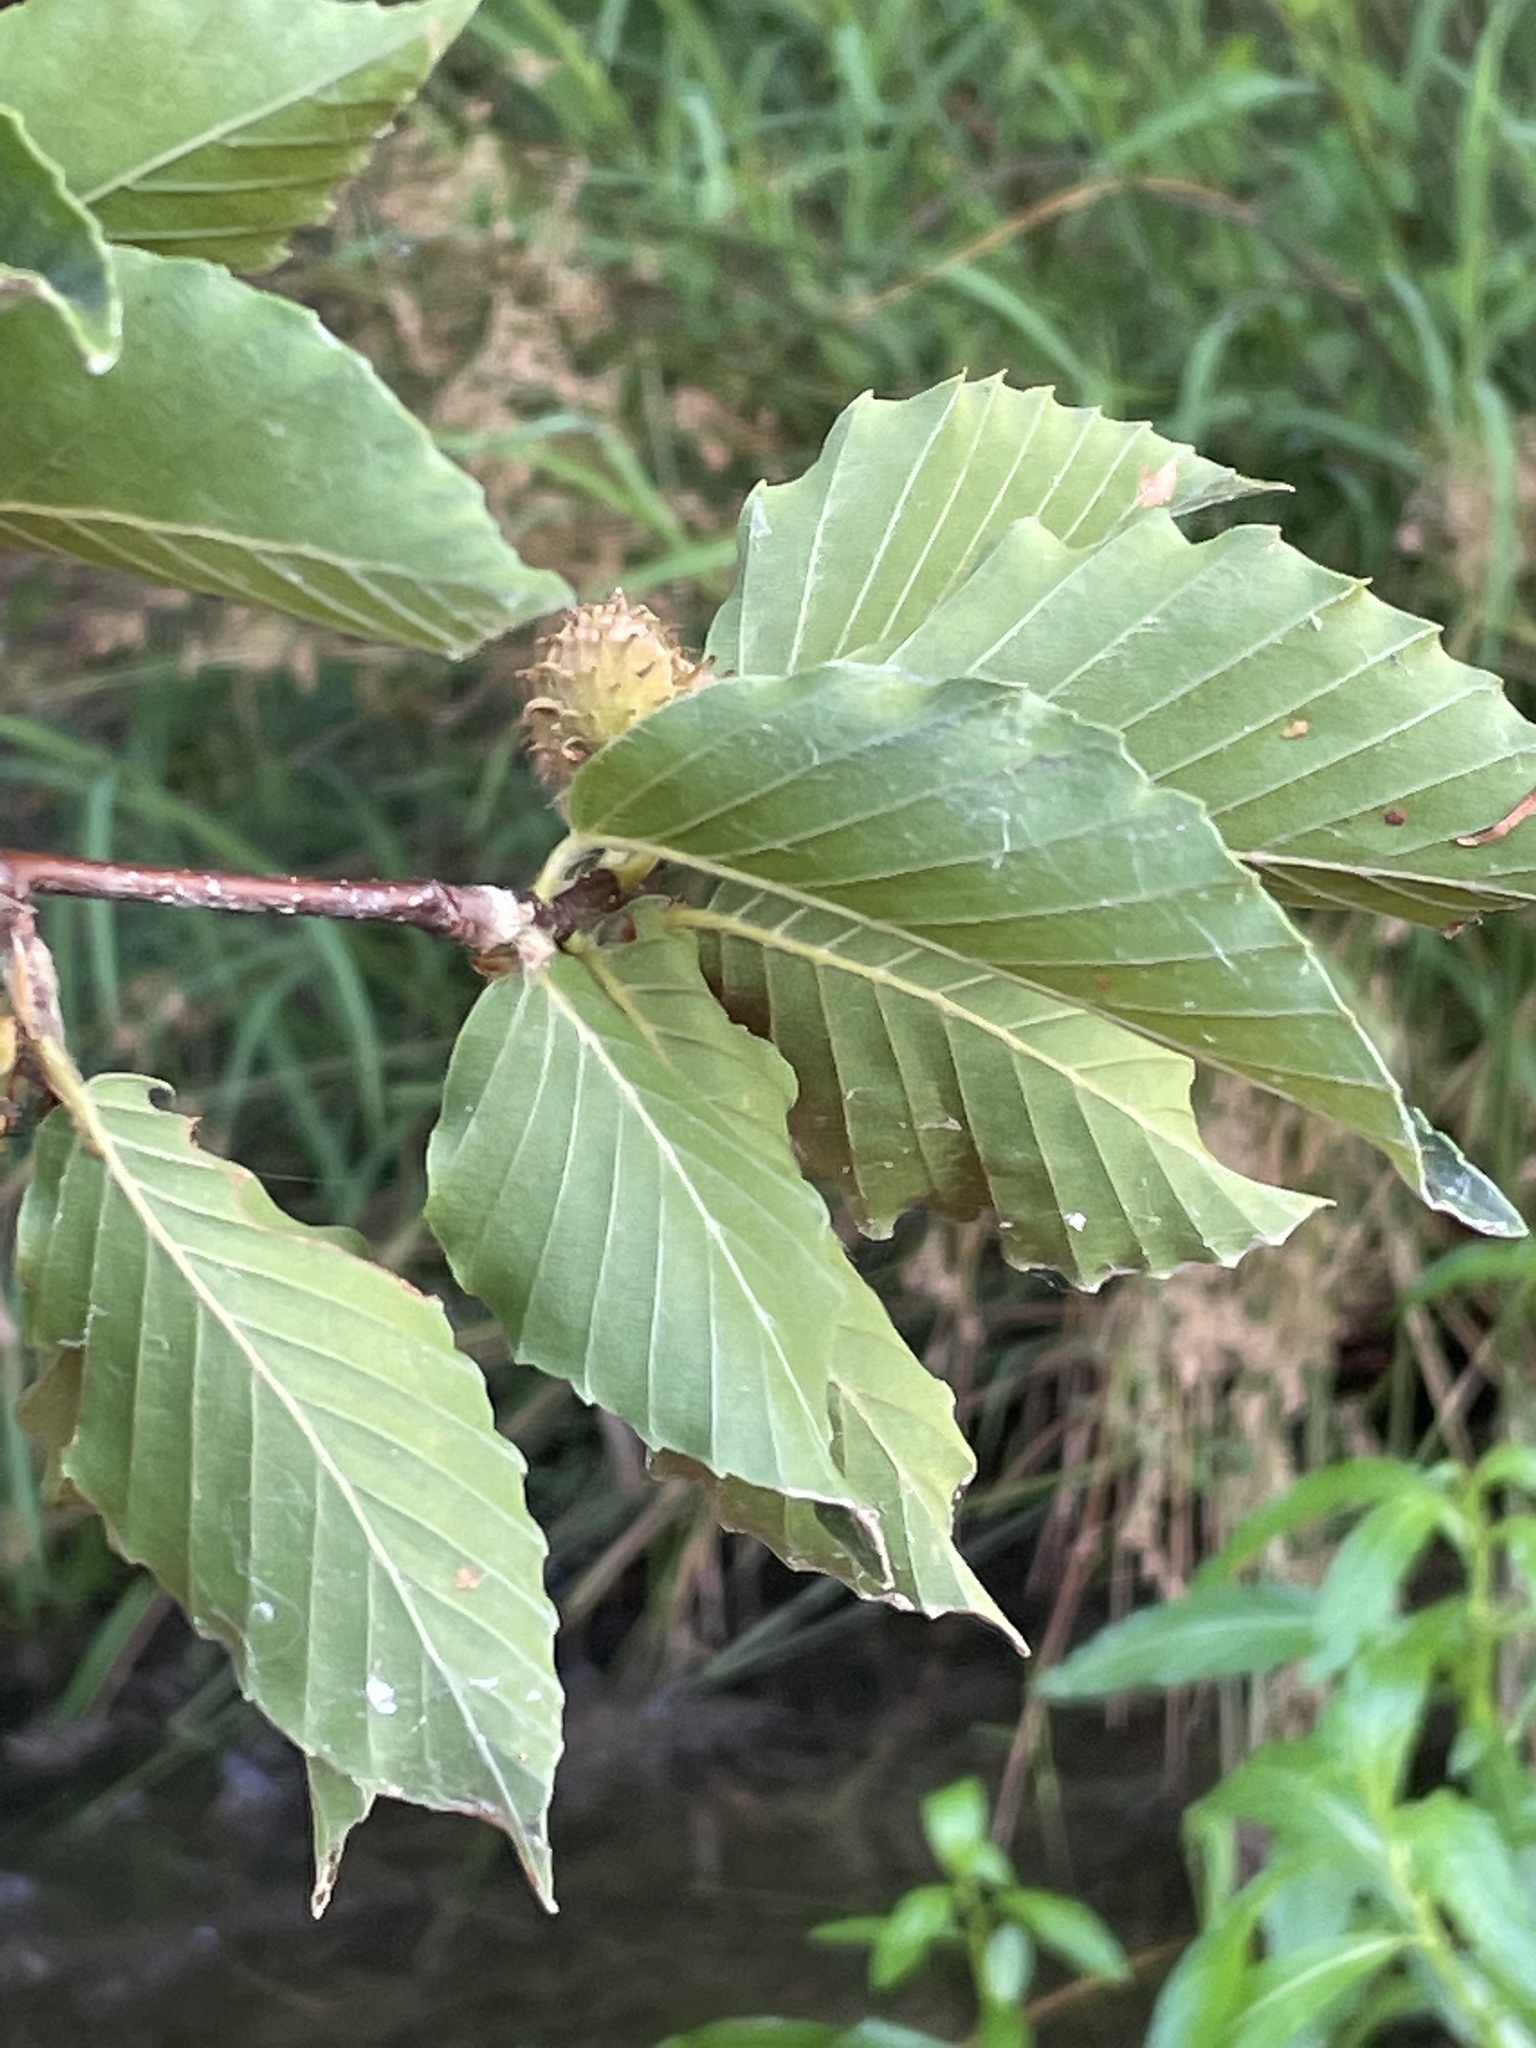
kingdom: Plantae
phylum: Tracheophyta
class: Magnoliopsida
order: Fagales
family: Fagaceae
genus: Fagus
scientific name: Fagus grandifolia
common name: American beech
